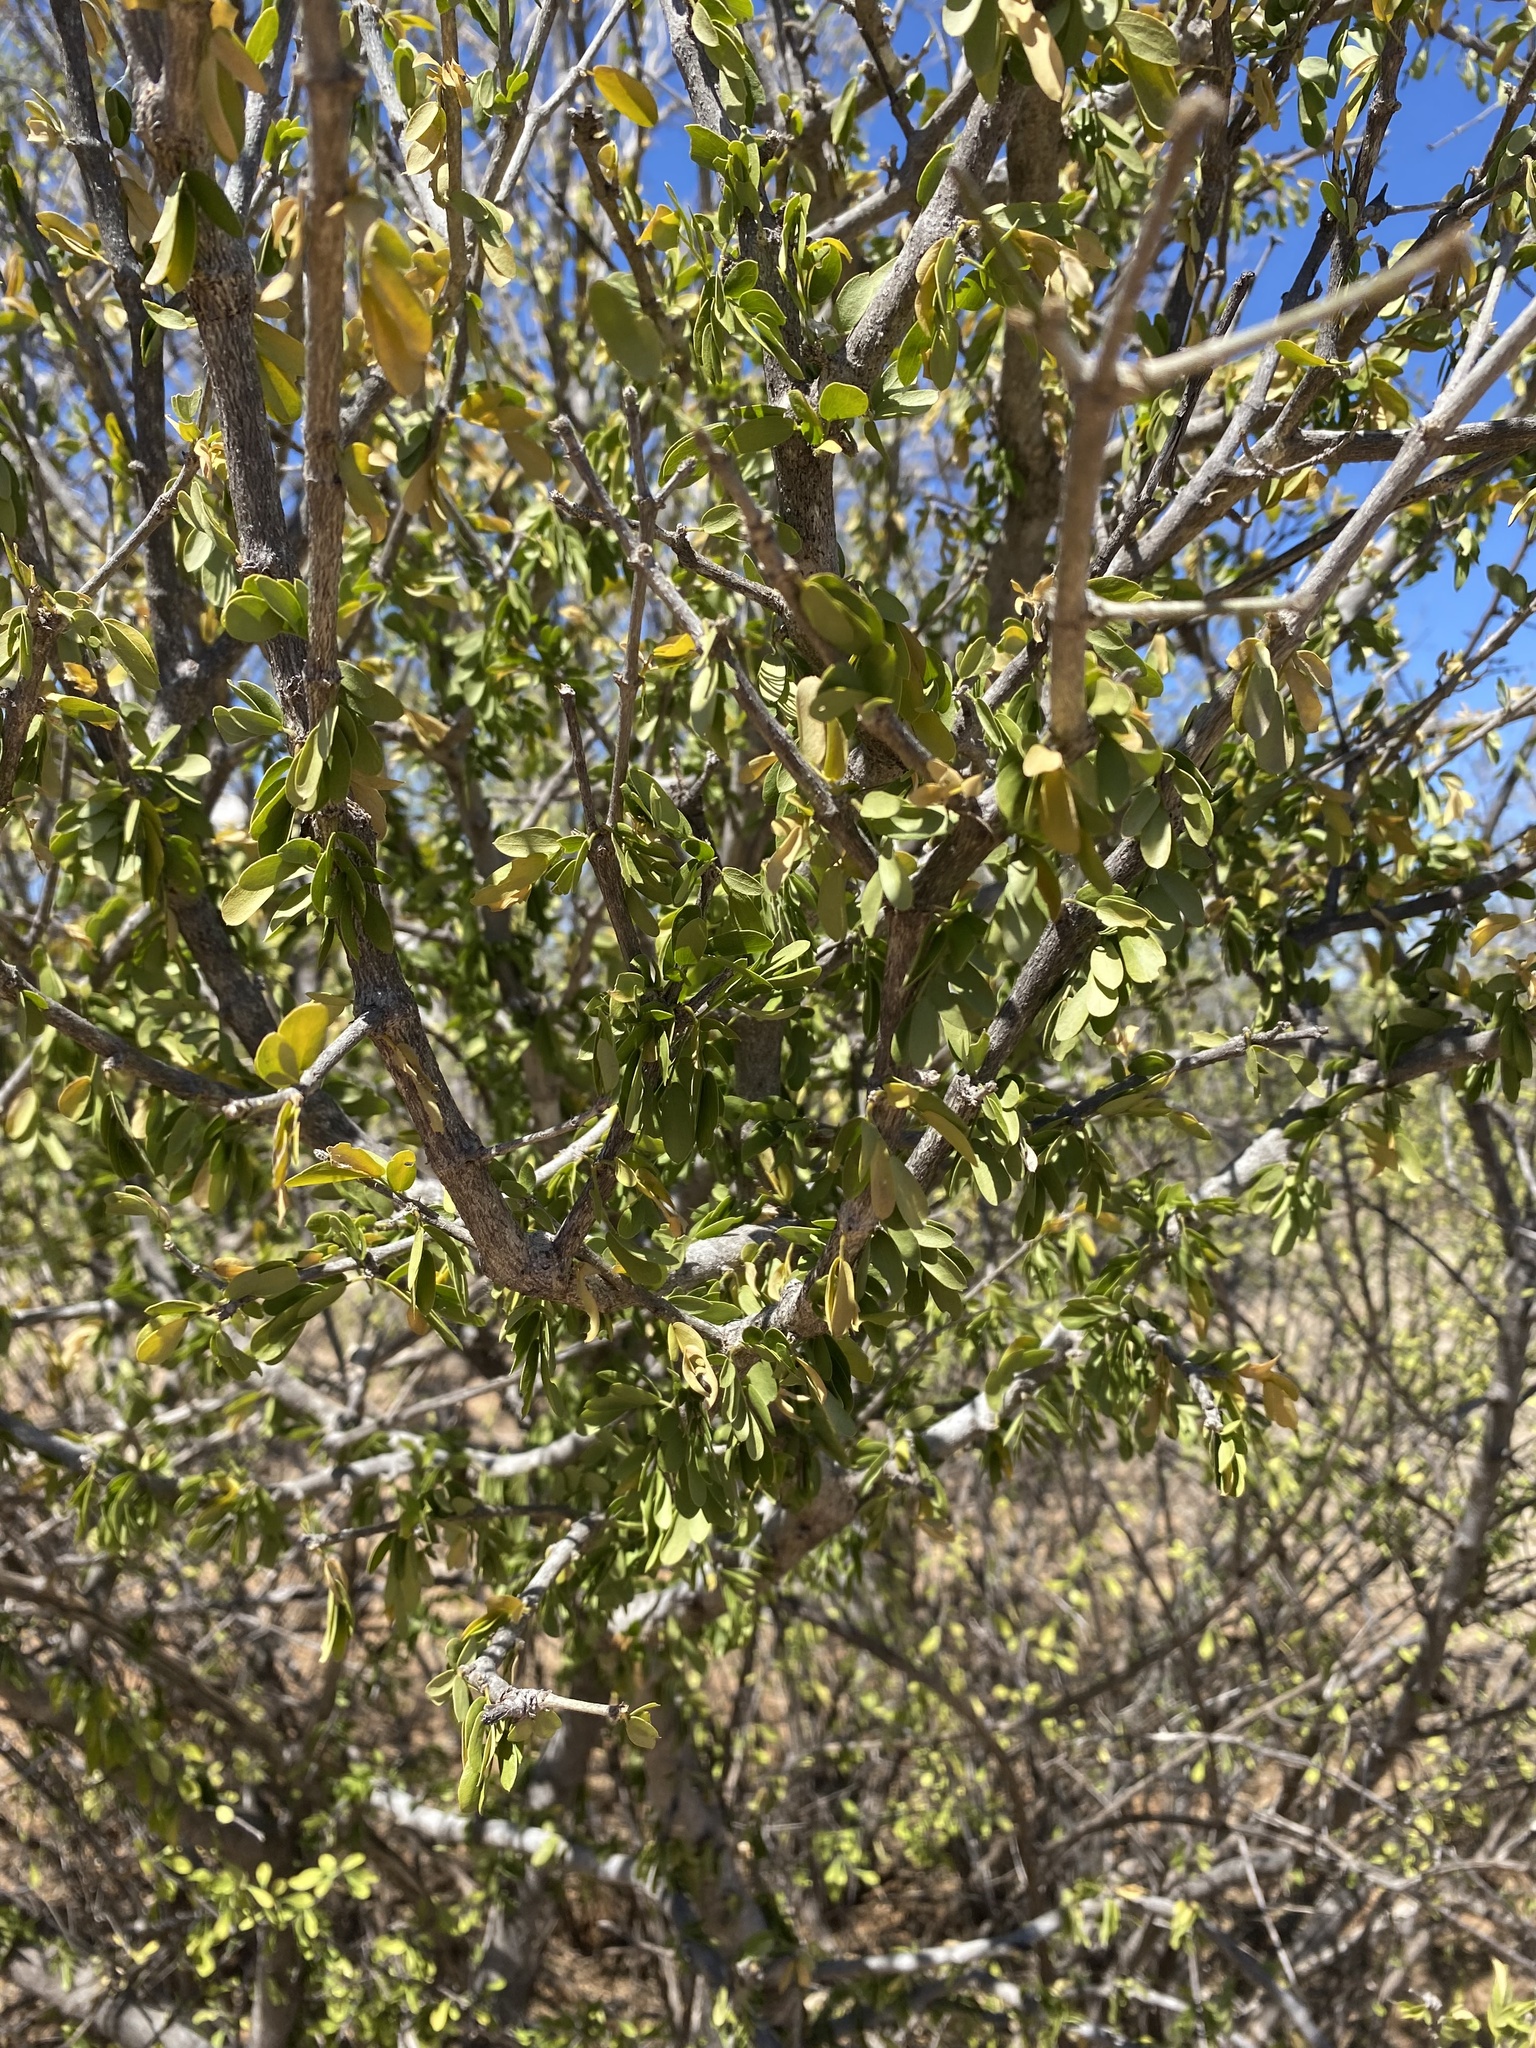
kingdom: Plantae
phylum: Tracheophyta
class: Magnoliopsida
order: Zygophyllales
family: Zygophyllaceae
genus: Guaiacum
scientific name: Guaiacum coulteri
